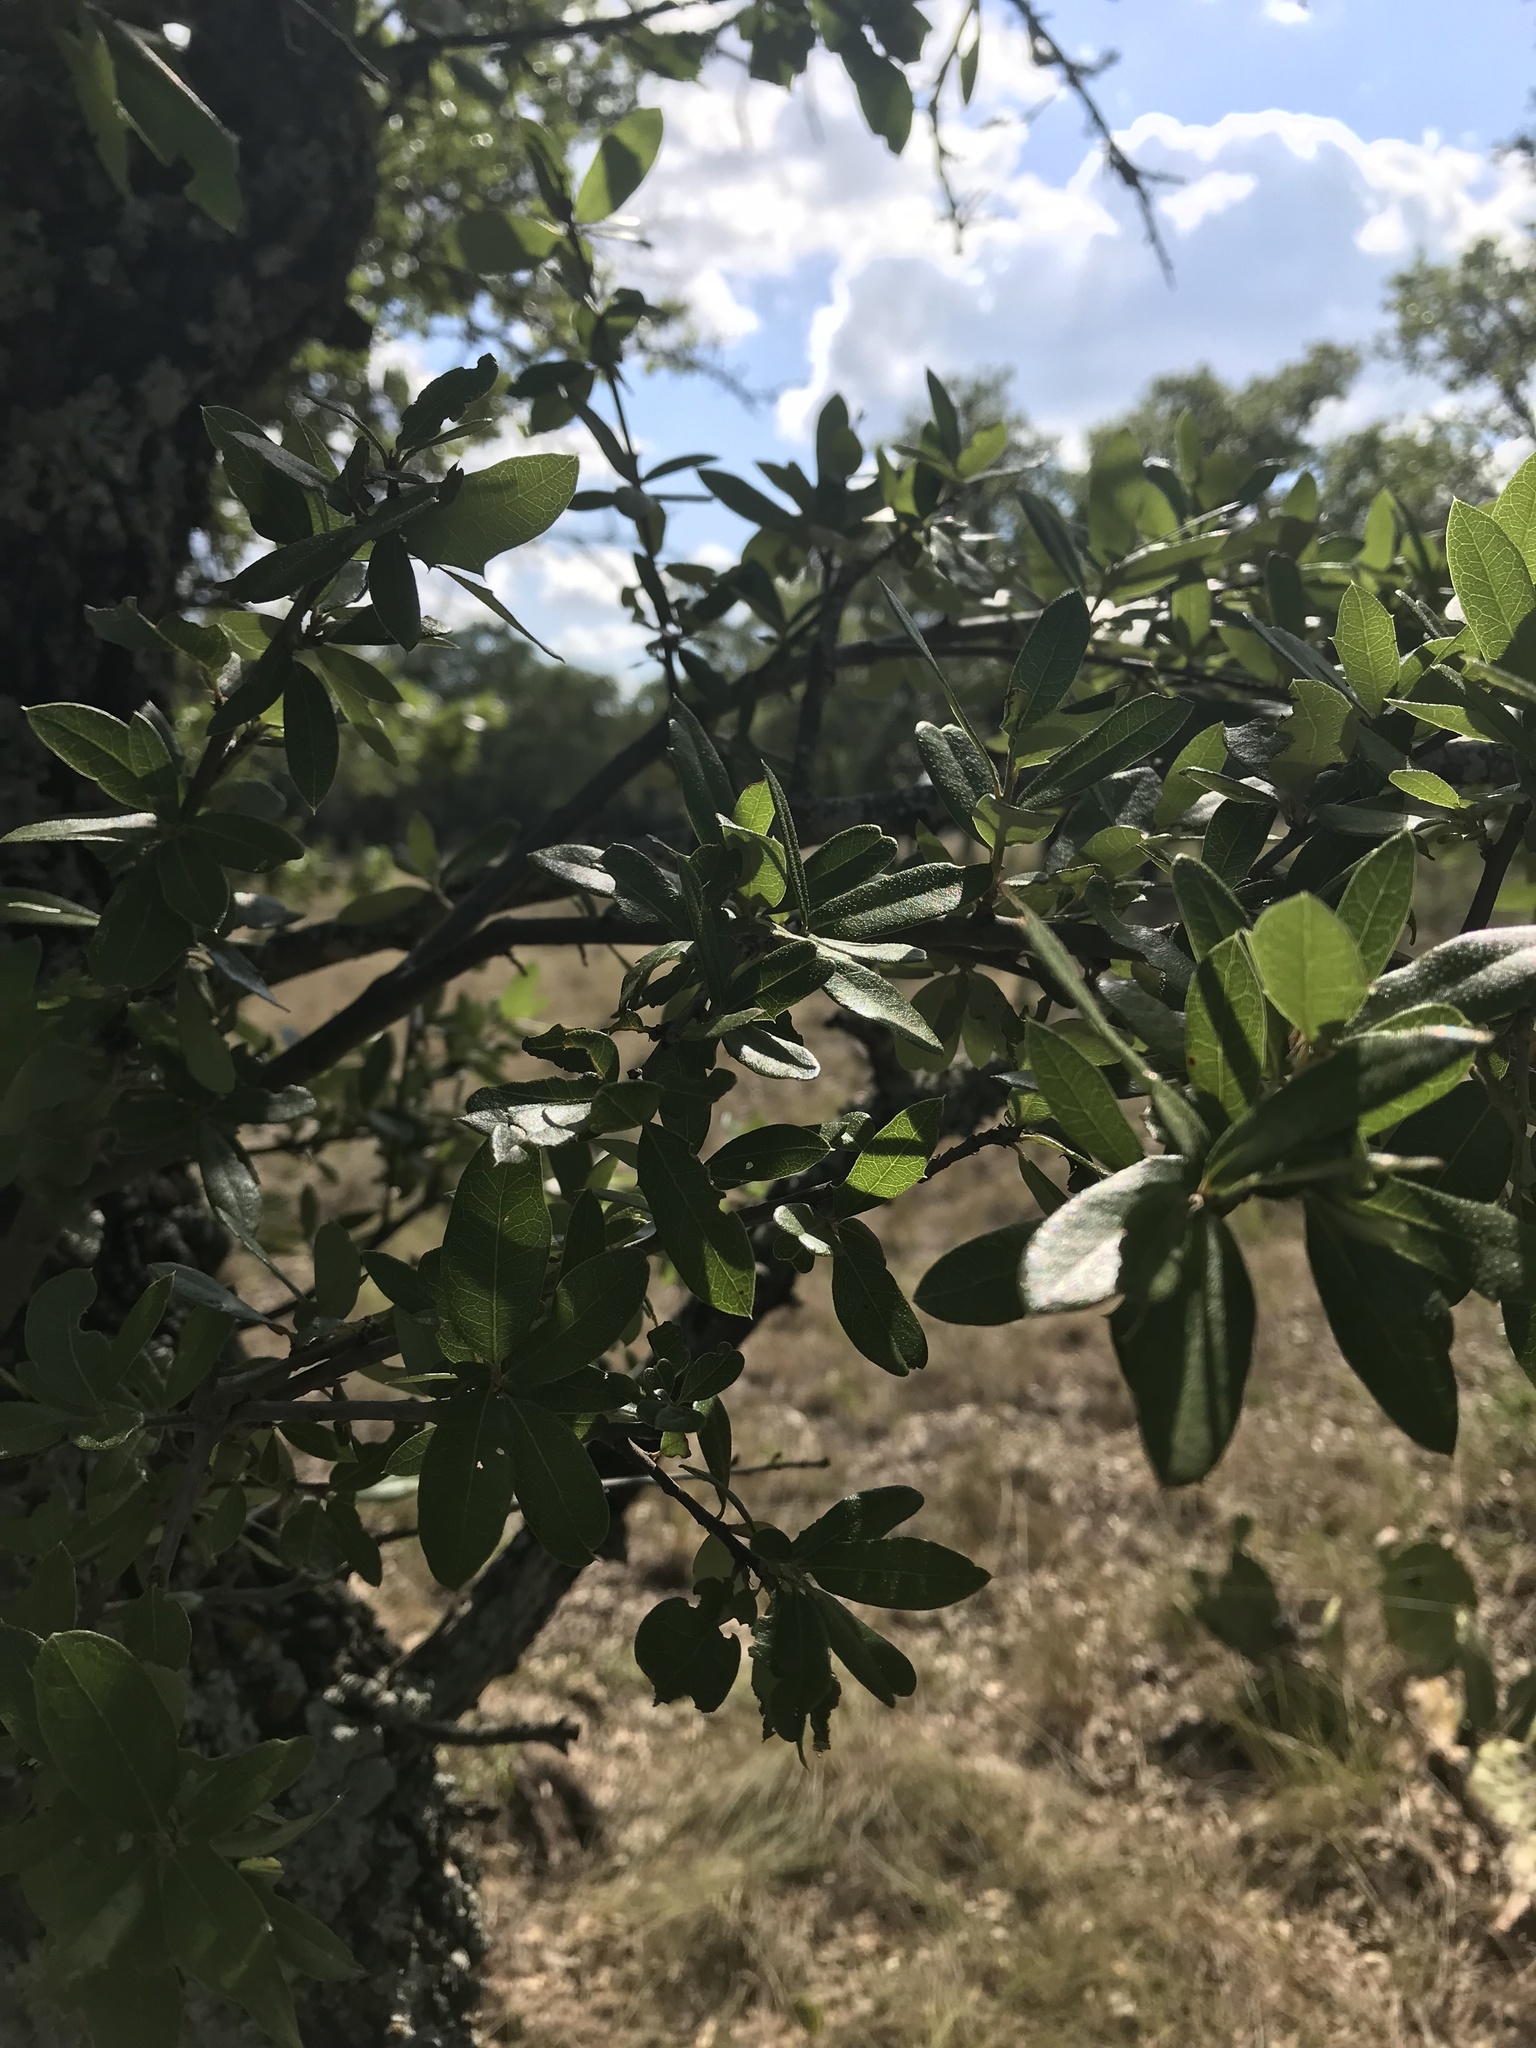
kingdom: Plantae
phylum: Tracheophyta
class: Magnoliopsida
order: Fagales
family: Fagaceae
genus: Quercus
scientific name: Quercus fusiformis
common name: Texas live oak
